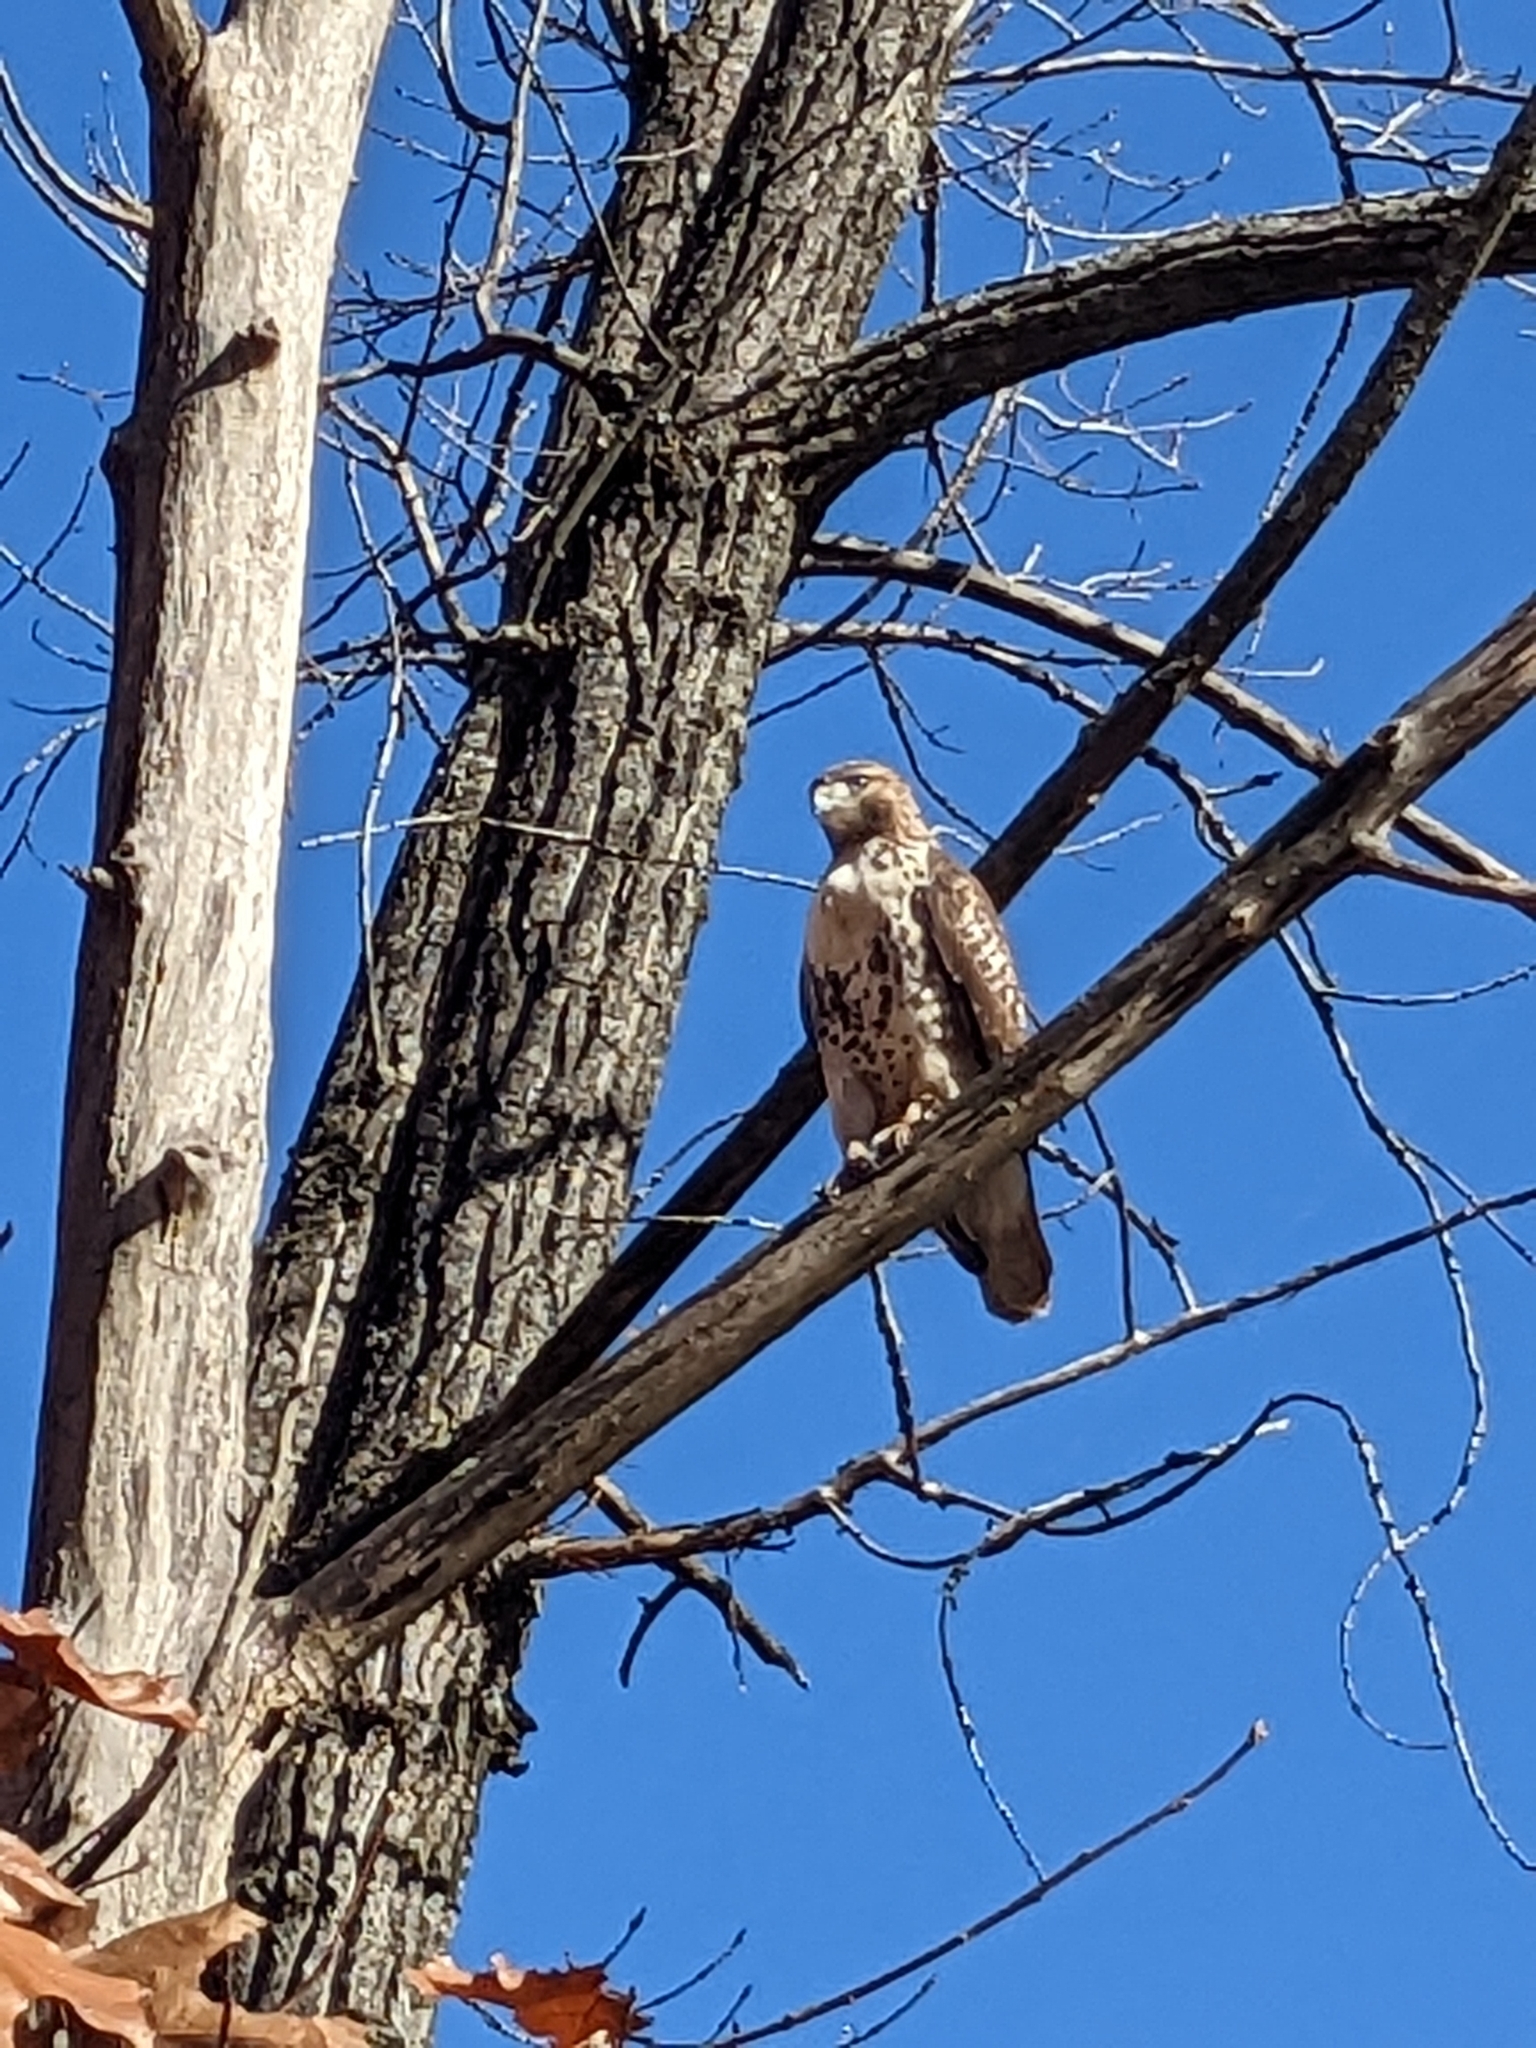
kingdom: Animalia
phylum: Chordata
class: Aves
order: Accipitriformes
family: Accipitridae
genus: Buteo
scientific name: Buteo jamaicensis
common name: Red-tailed hawk
